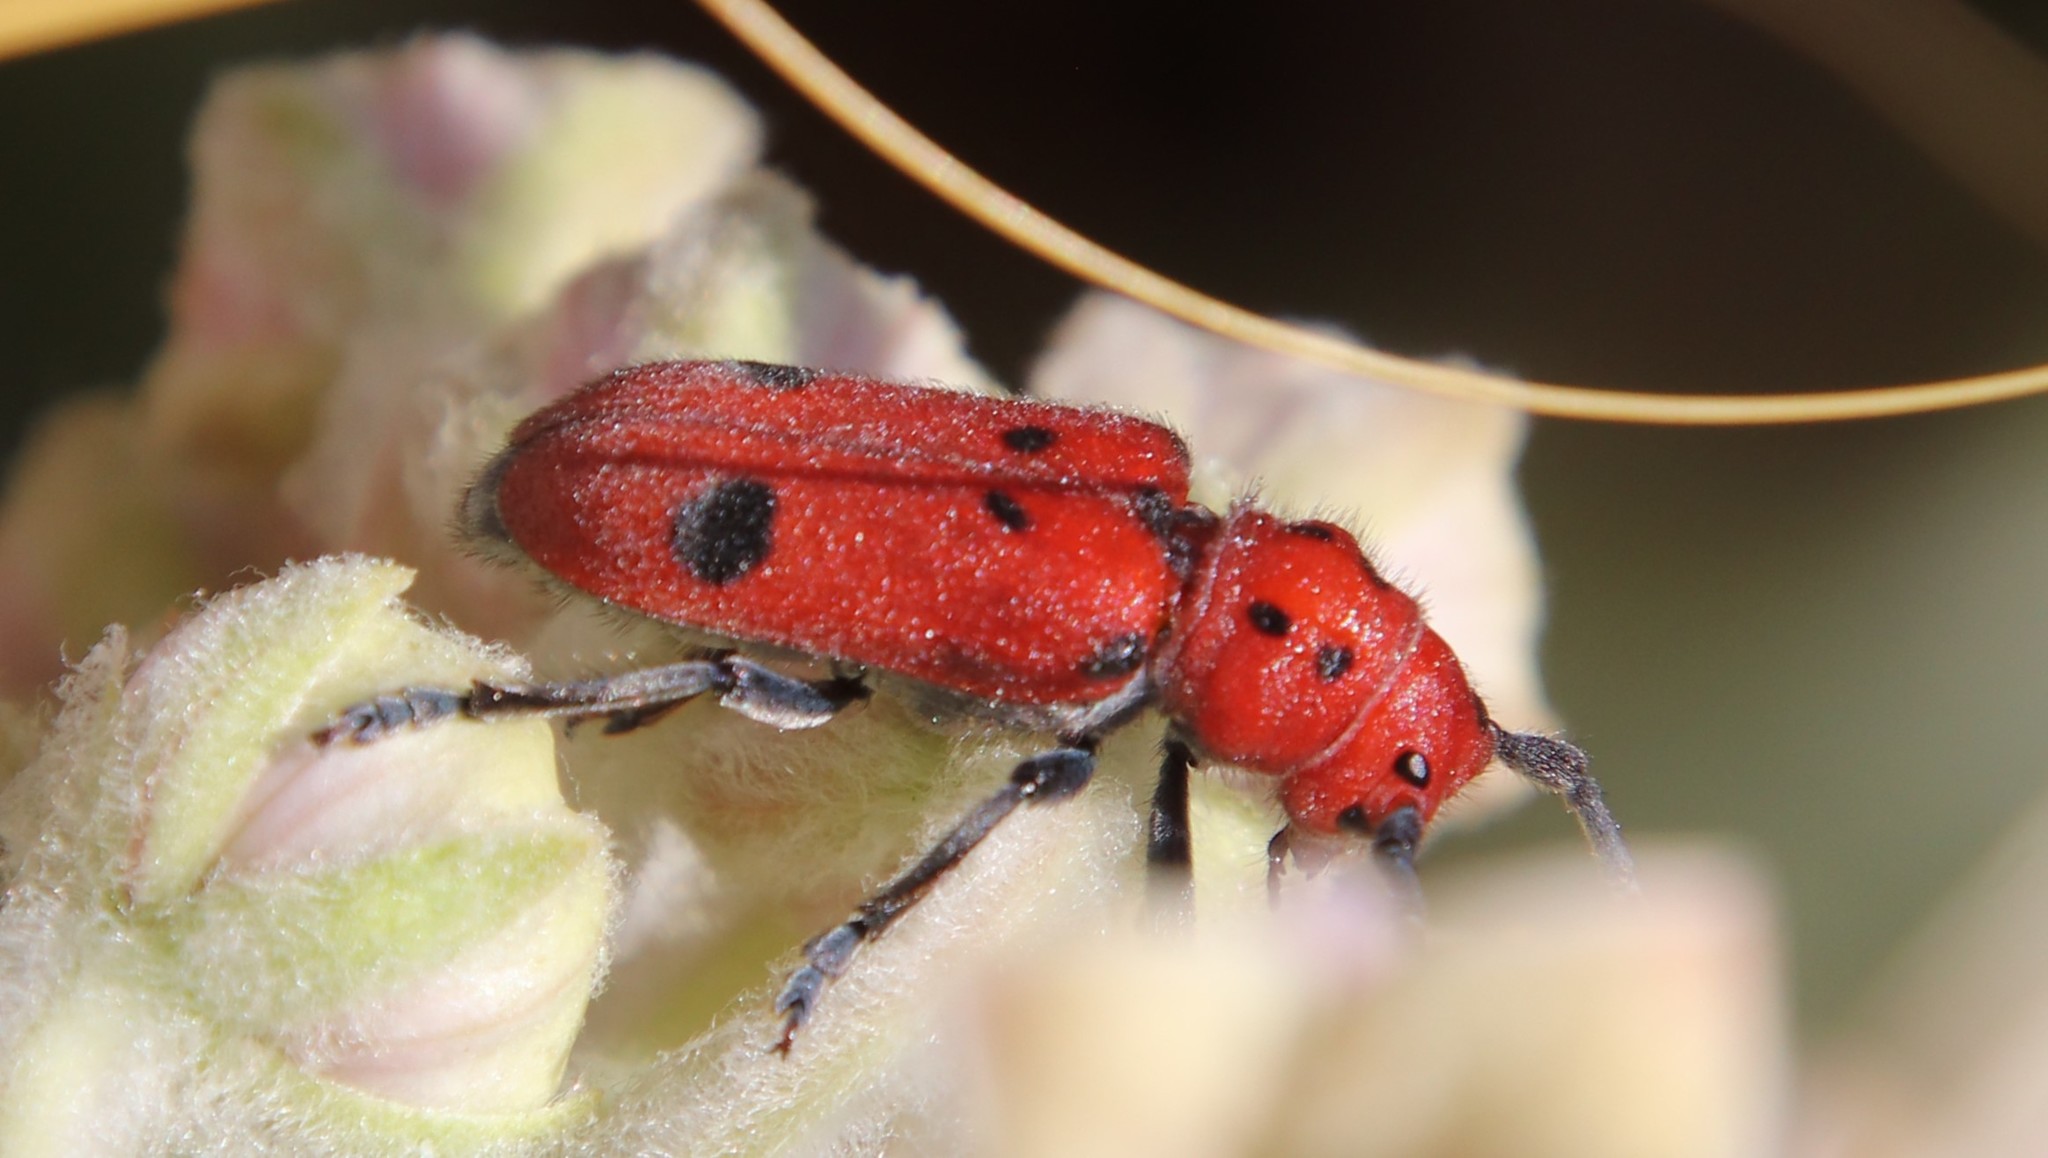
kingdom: Animalia
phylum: Arthropoda
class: Insecta
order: Coleoptera
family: Cerambycidae
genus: Tetraopes
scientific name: Tetraopes basalis
